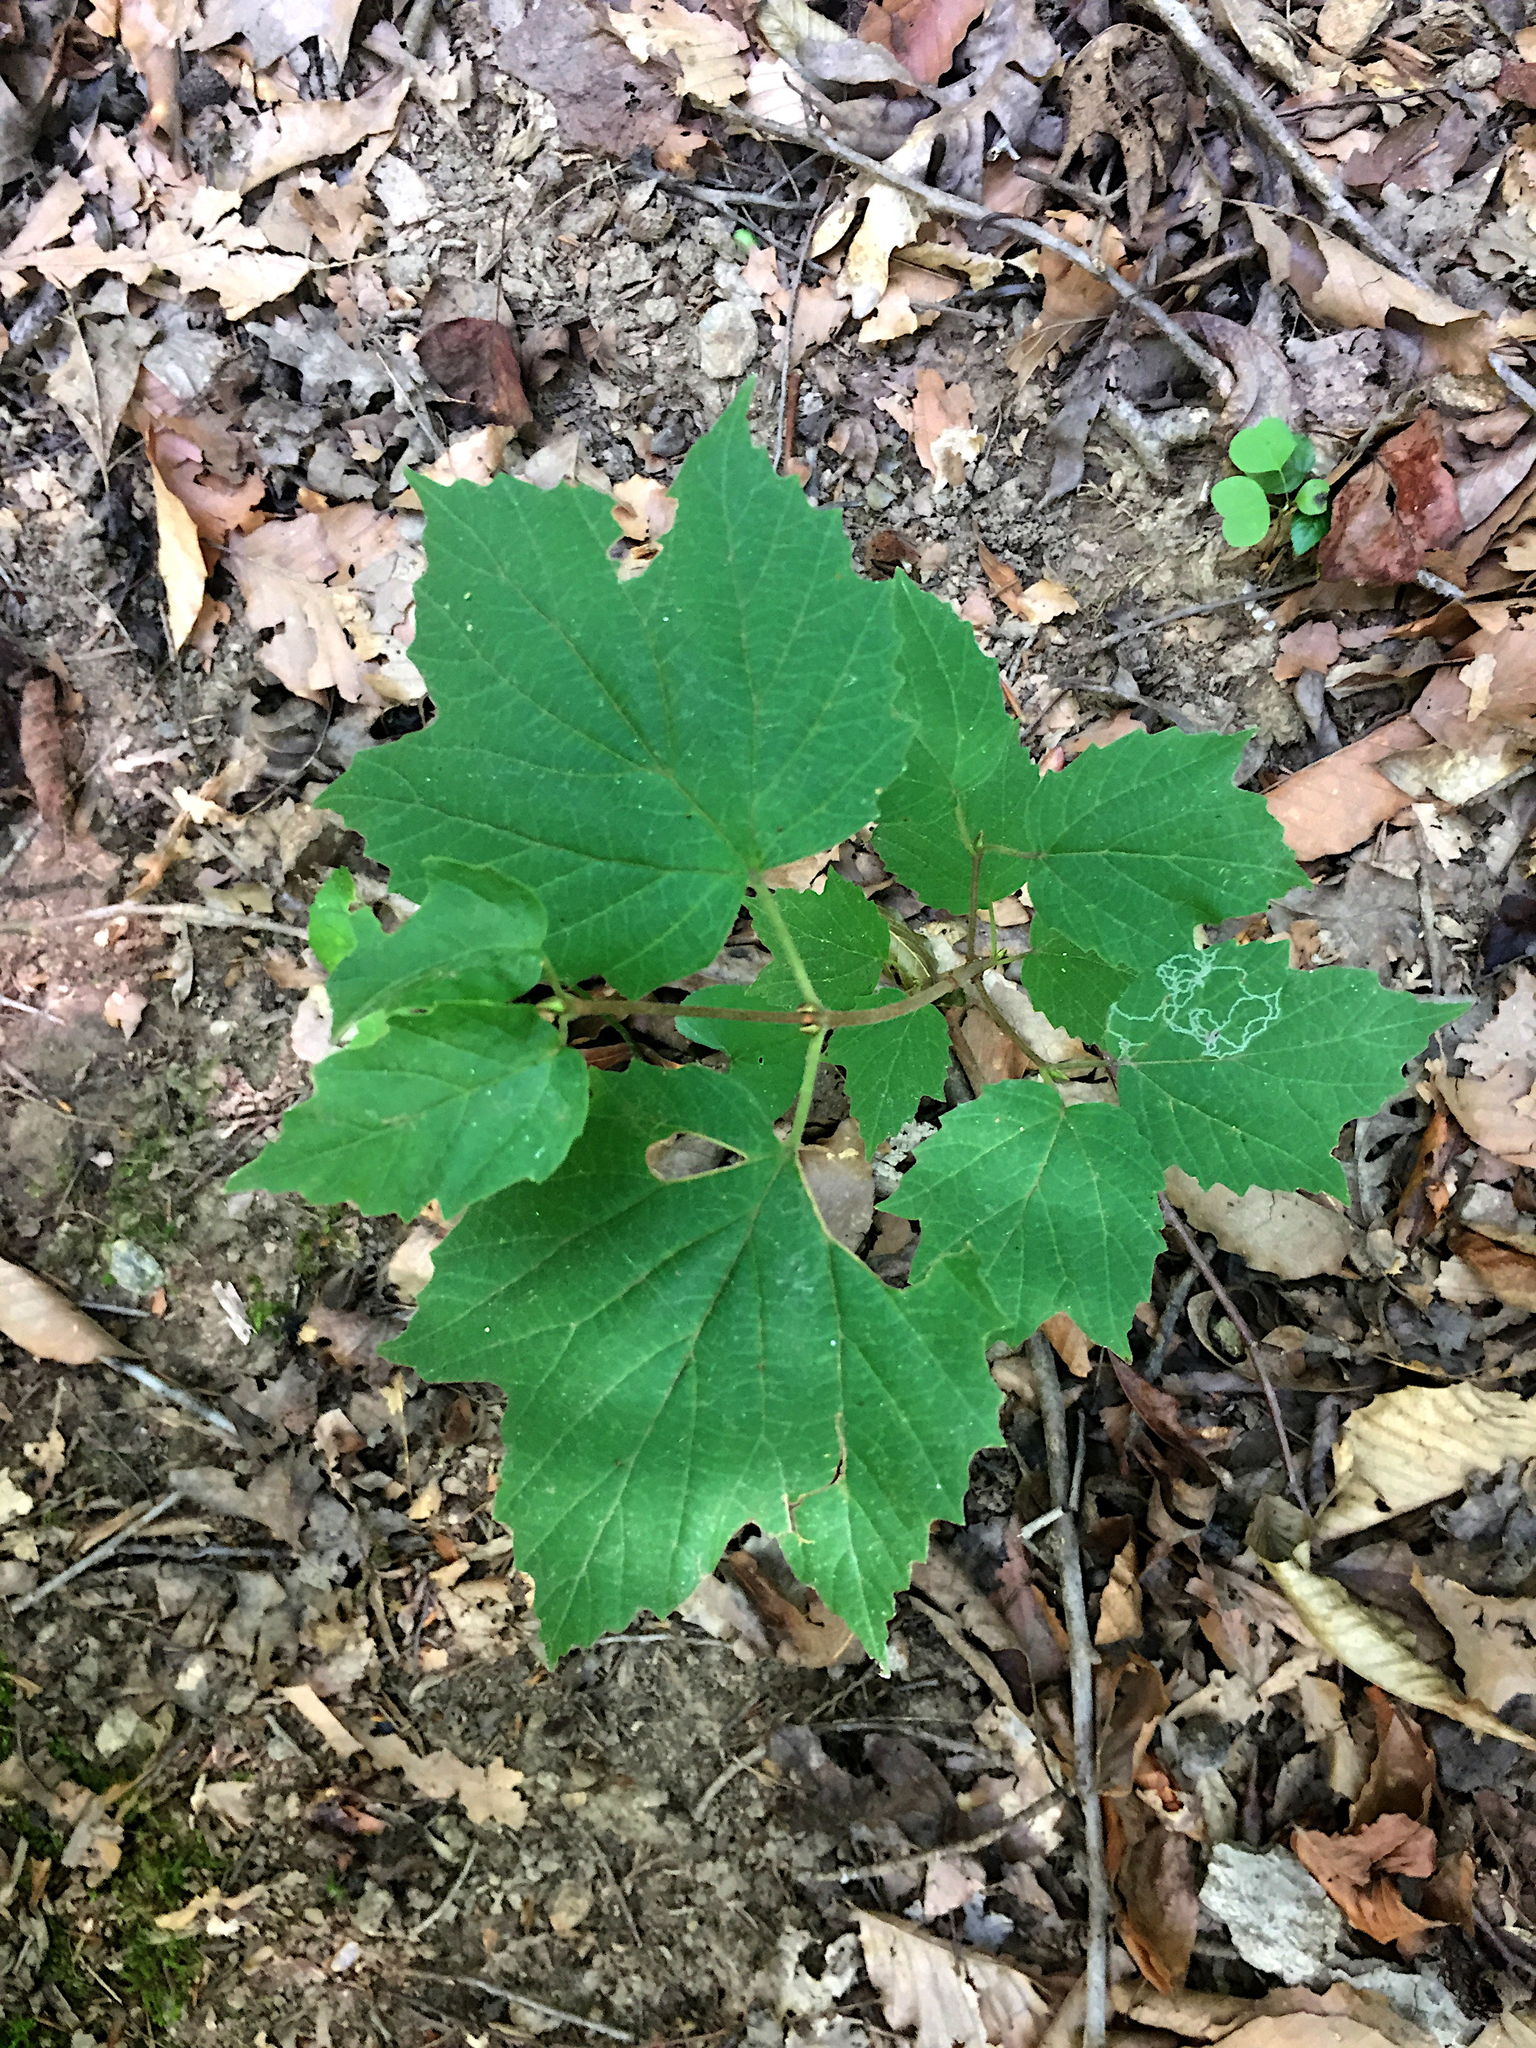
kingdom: Animalia
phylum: Arthropoda
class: Insecta
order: Lepidoptera
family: Gracillariidae
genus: Marmara
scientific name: Marmara viburnella
